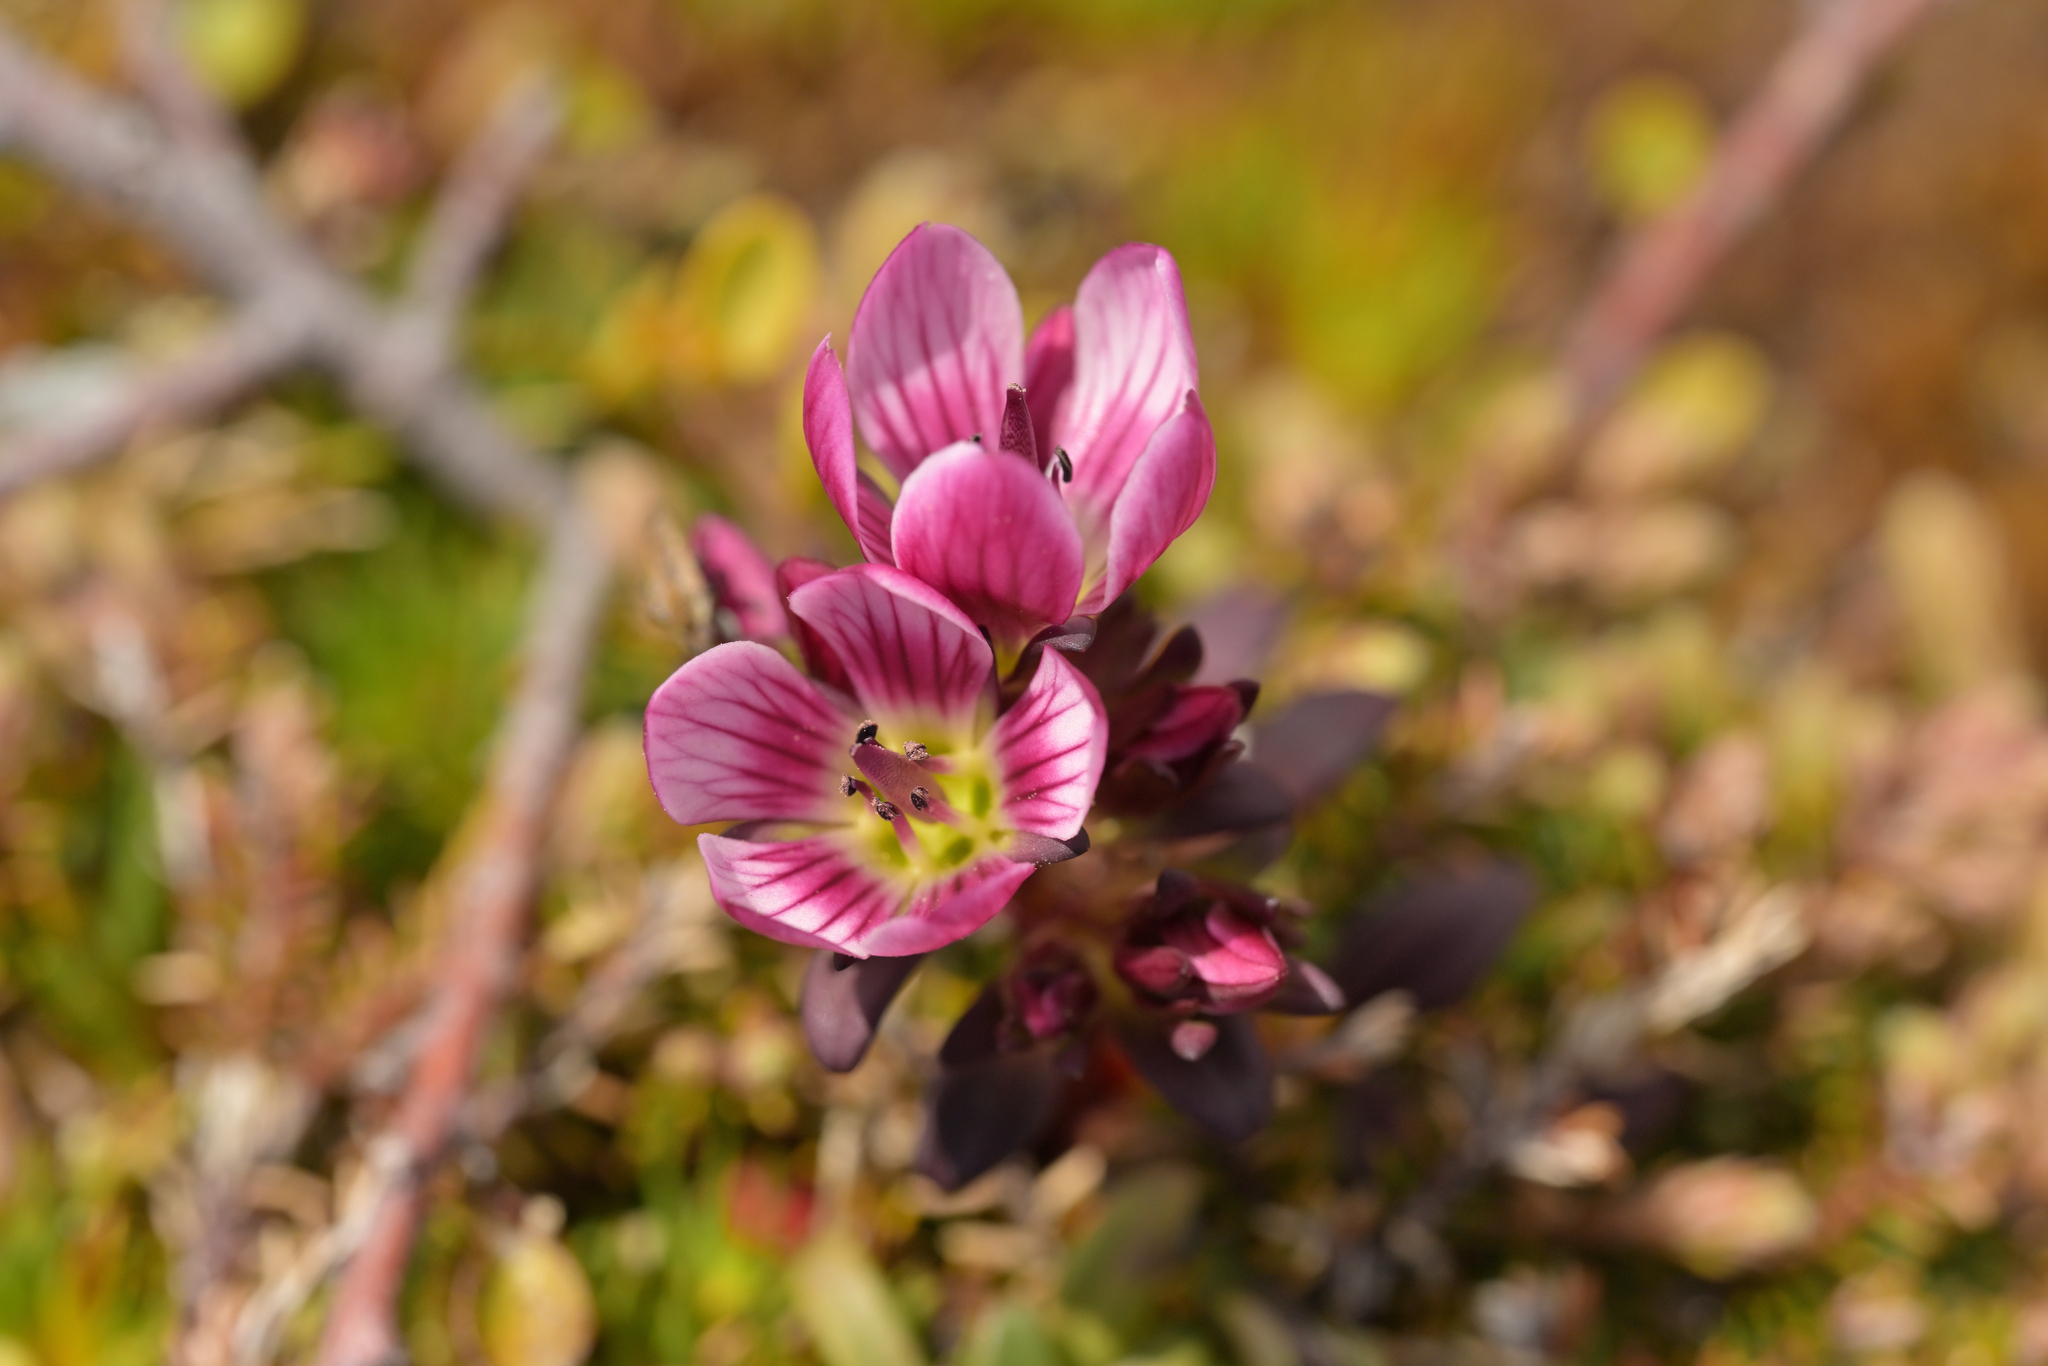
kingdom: Plantae
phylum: Tracheophyta
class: Magnoliopsida
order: Gentianales
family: Gentianaceae
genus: Gentianella
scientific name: Gentianella concinna
